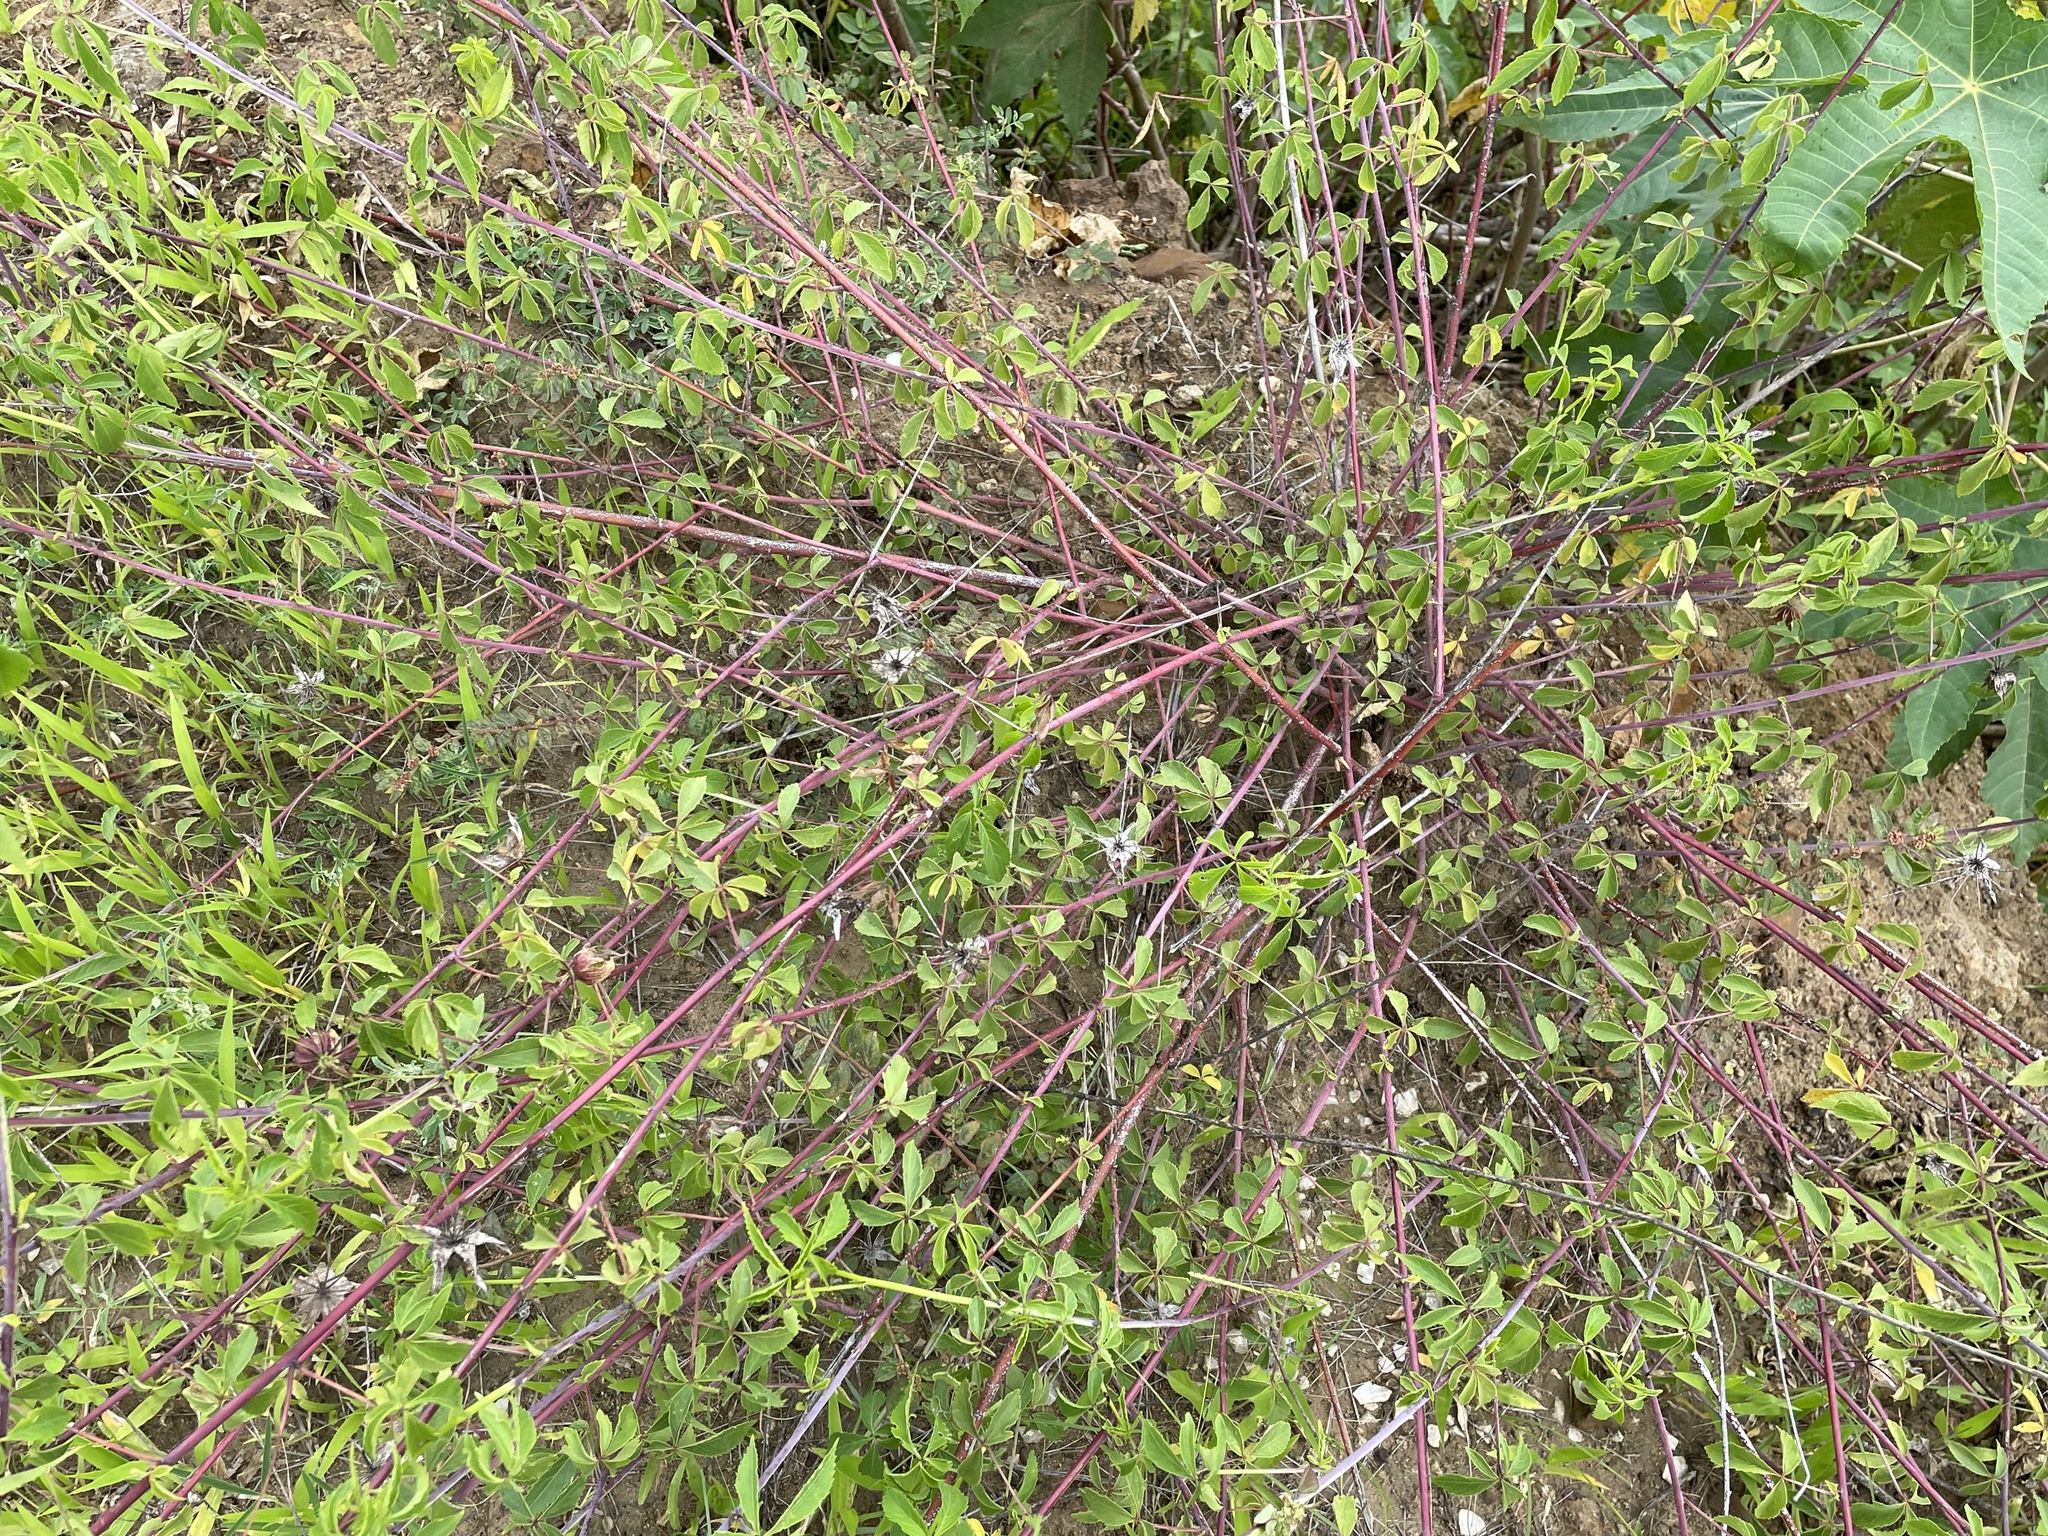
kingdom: Plantae
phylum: Tracheophyta
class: Magnoliopsida
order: Malvales
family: Malvaceae
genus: Hibiscus
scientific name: Hibiscus caesius
